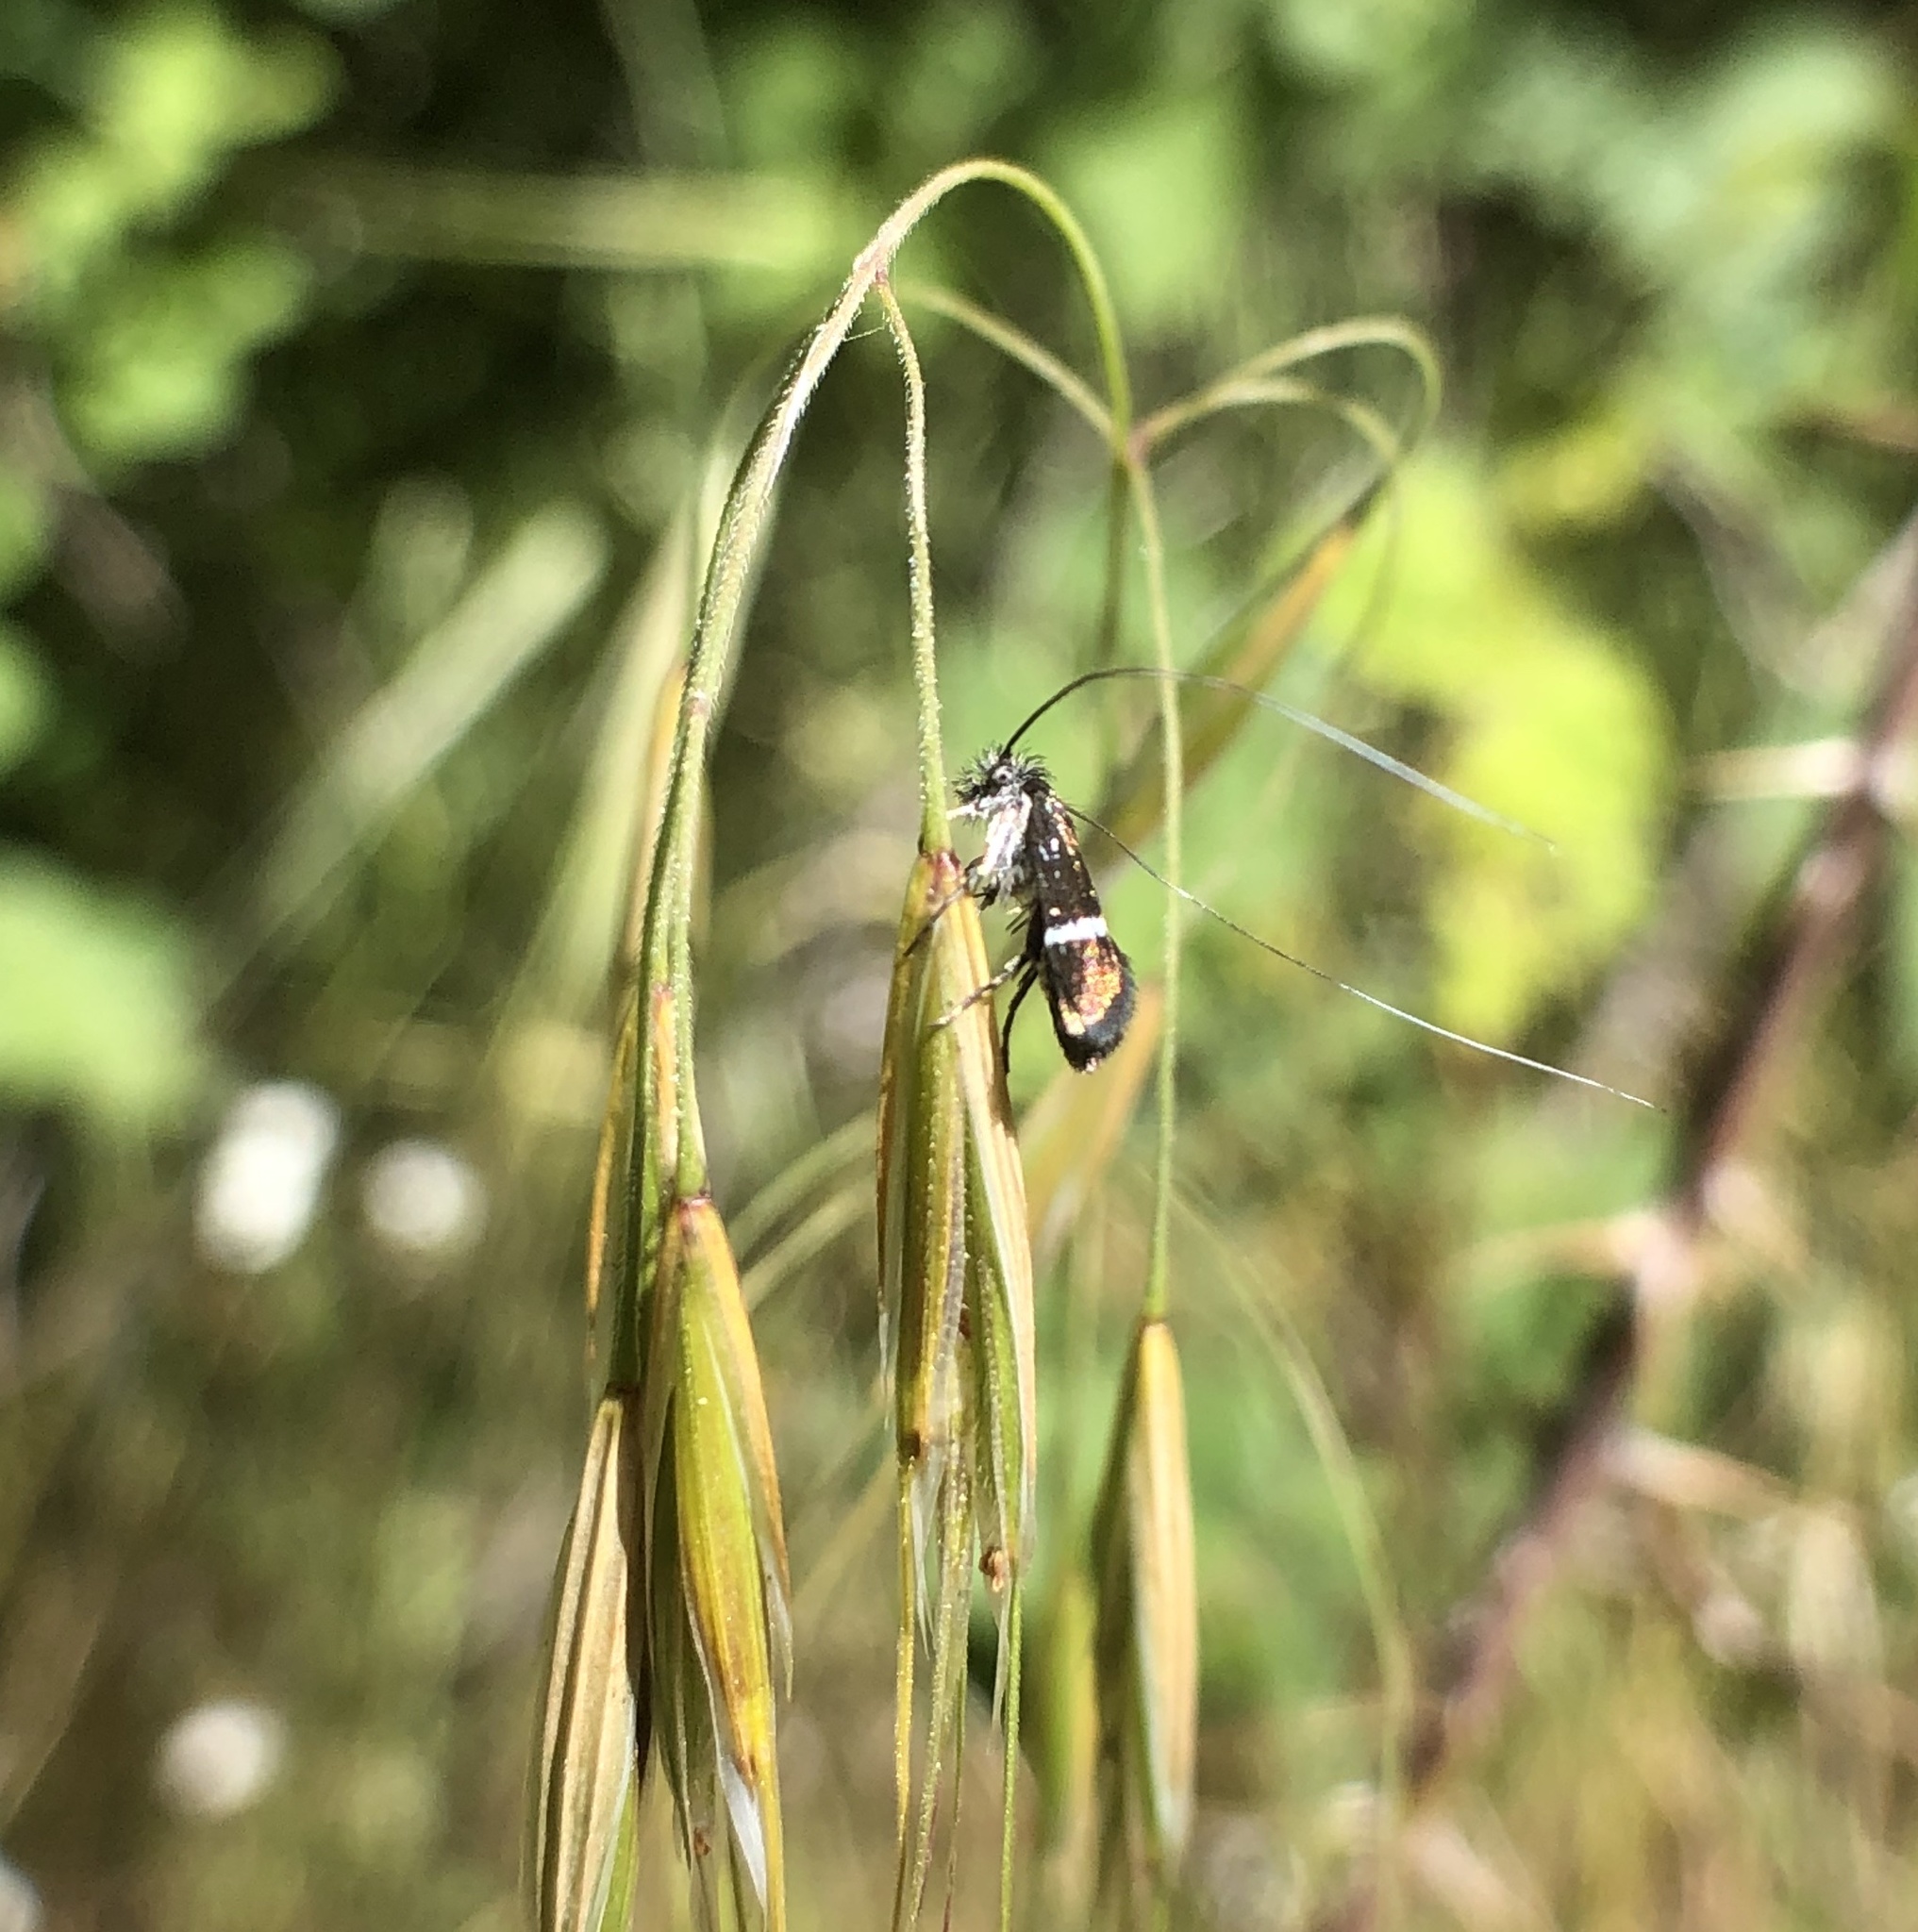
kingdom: Animalia
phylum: Arthropoda
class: Insecta
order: Lepidoptera
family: Adelidae
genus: Adela
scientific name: Adela singulella
